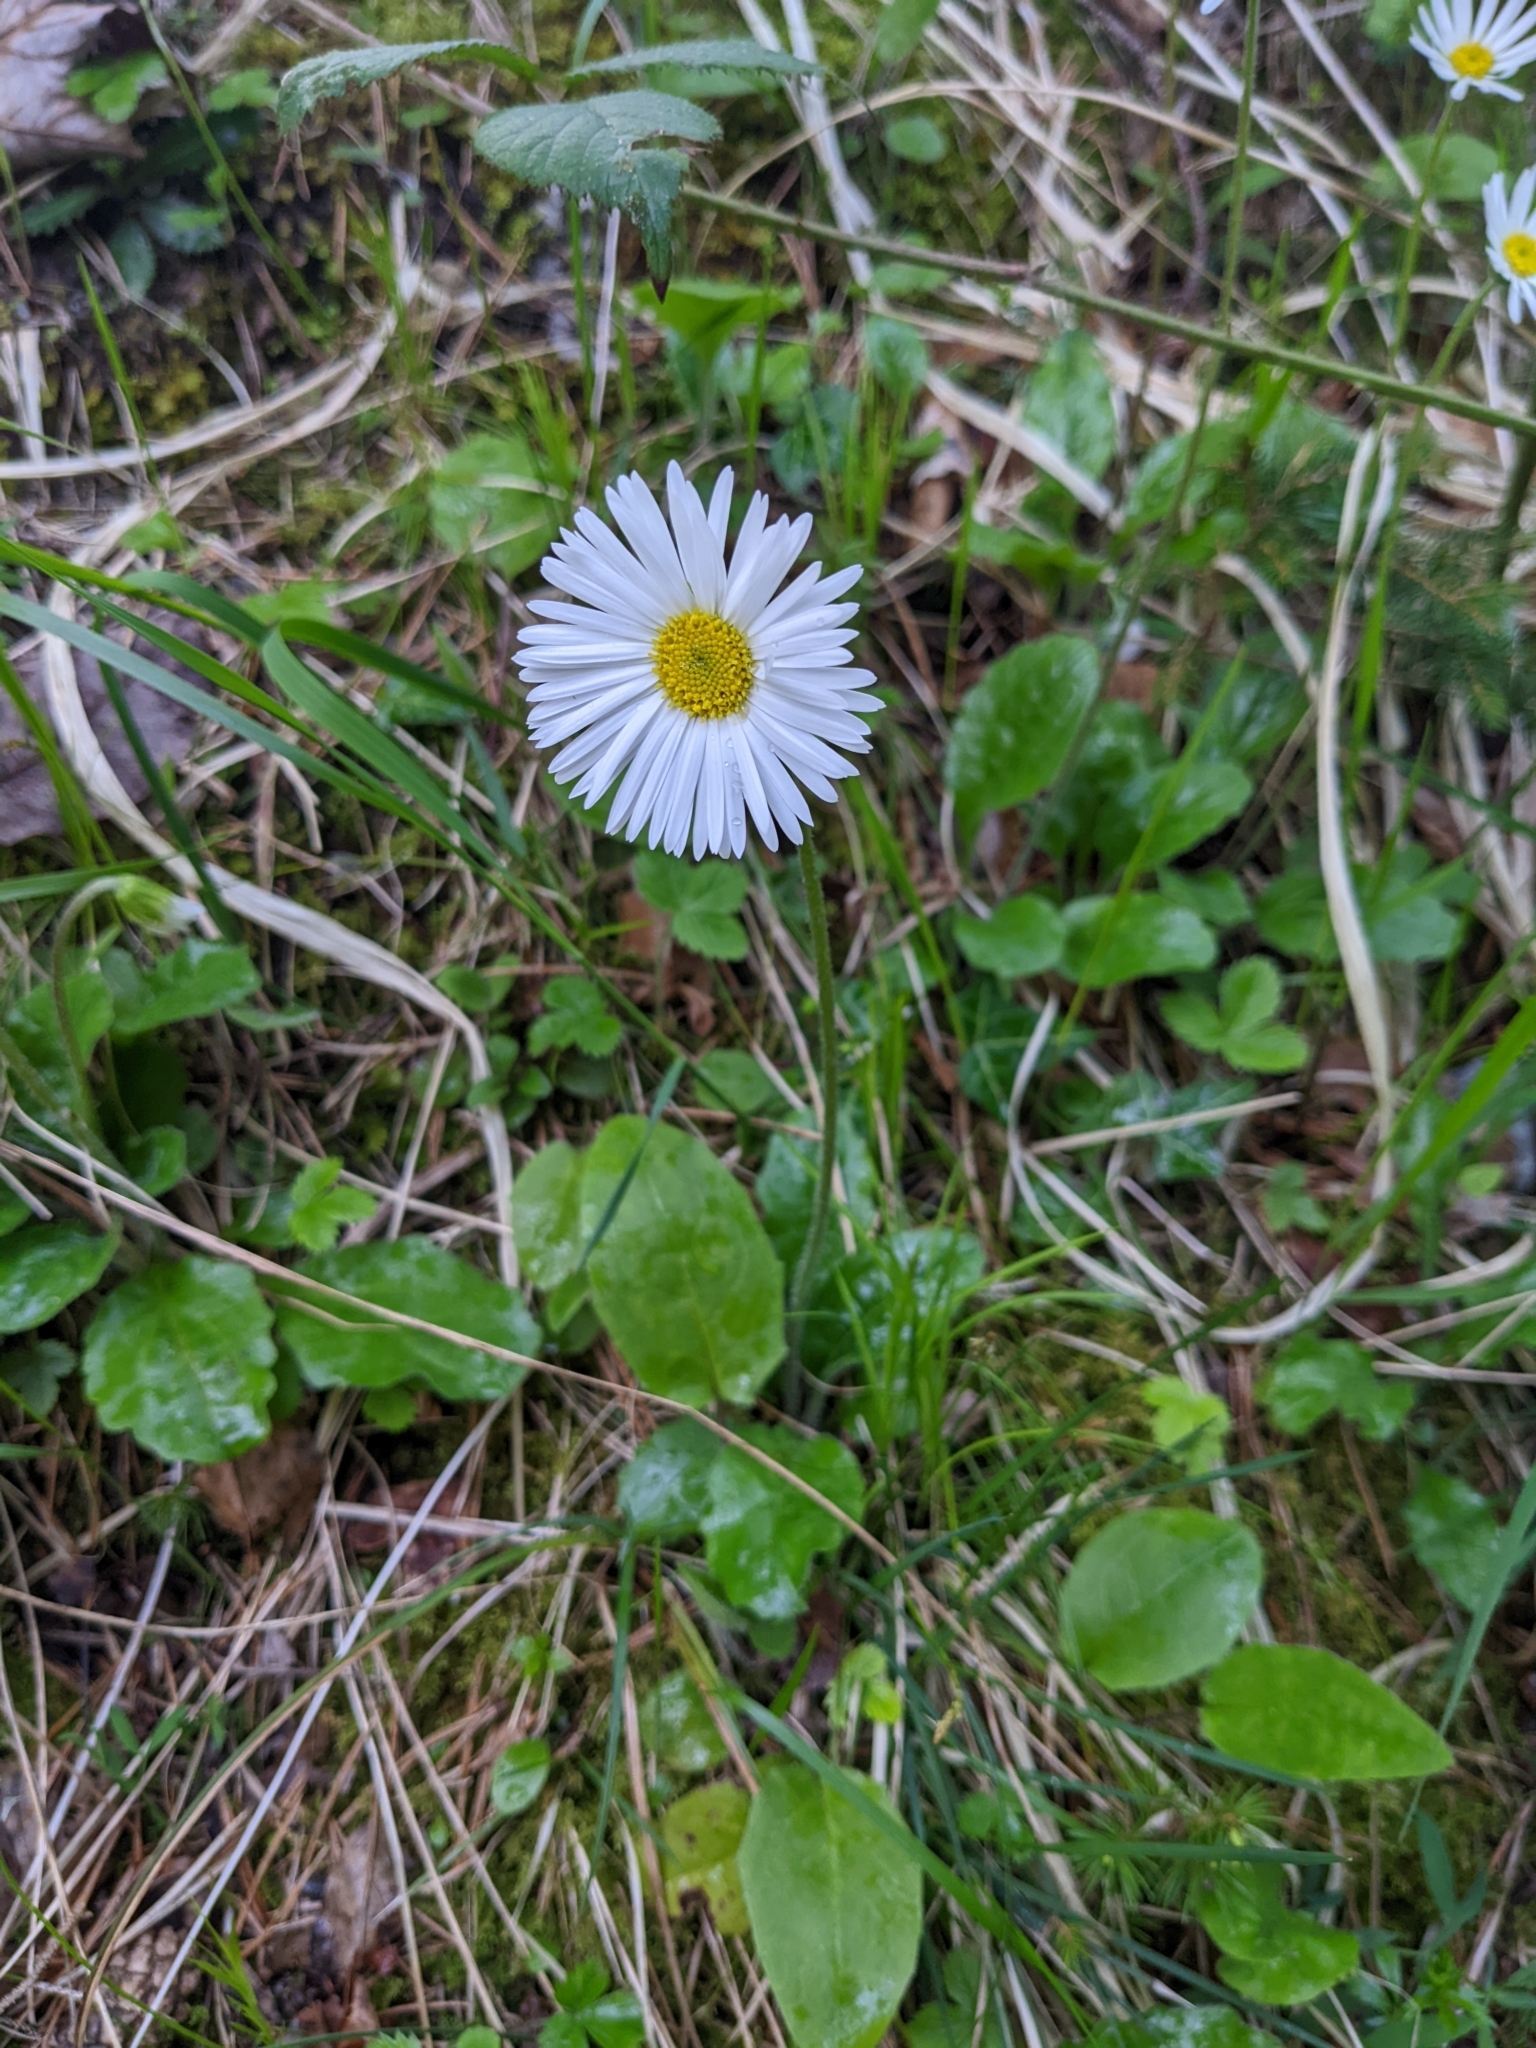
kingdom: Plantae
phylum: Tracheophyta
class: Magnoliopsida
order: Asterales
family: Asteraceae
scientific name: Asteraceae
